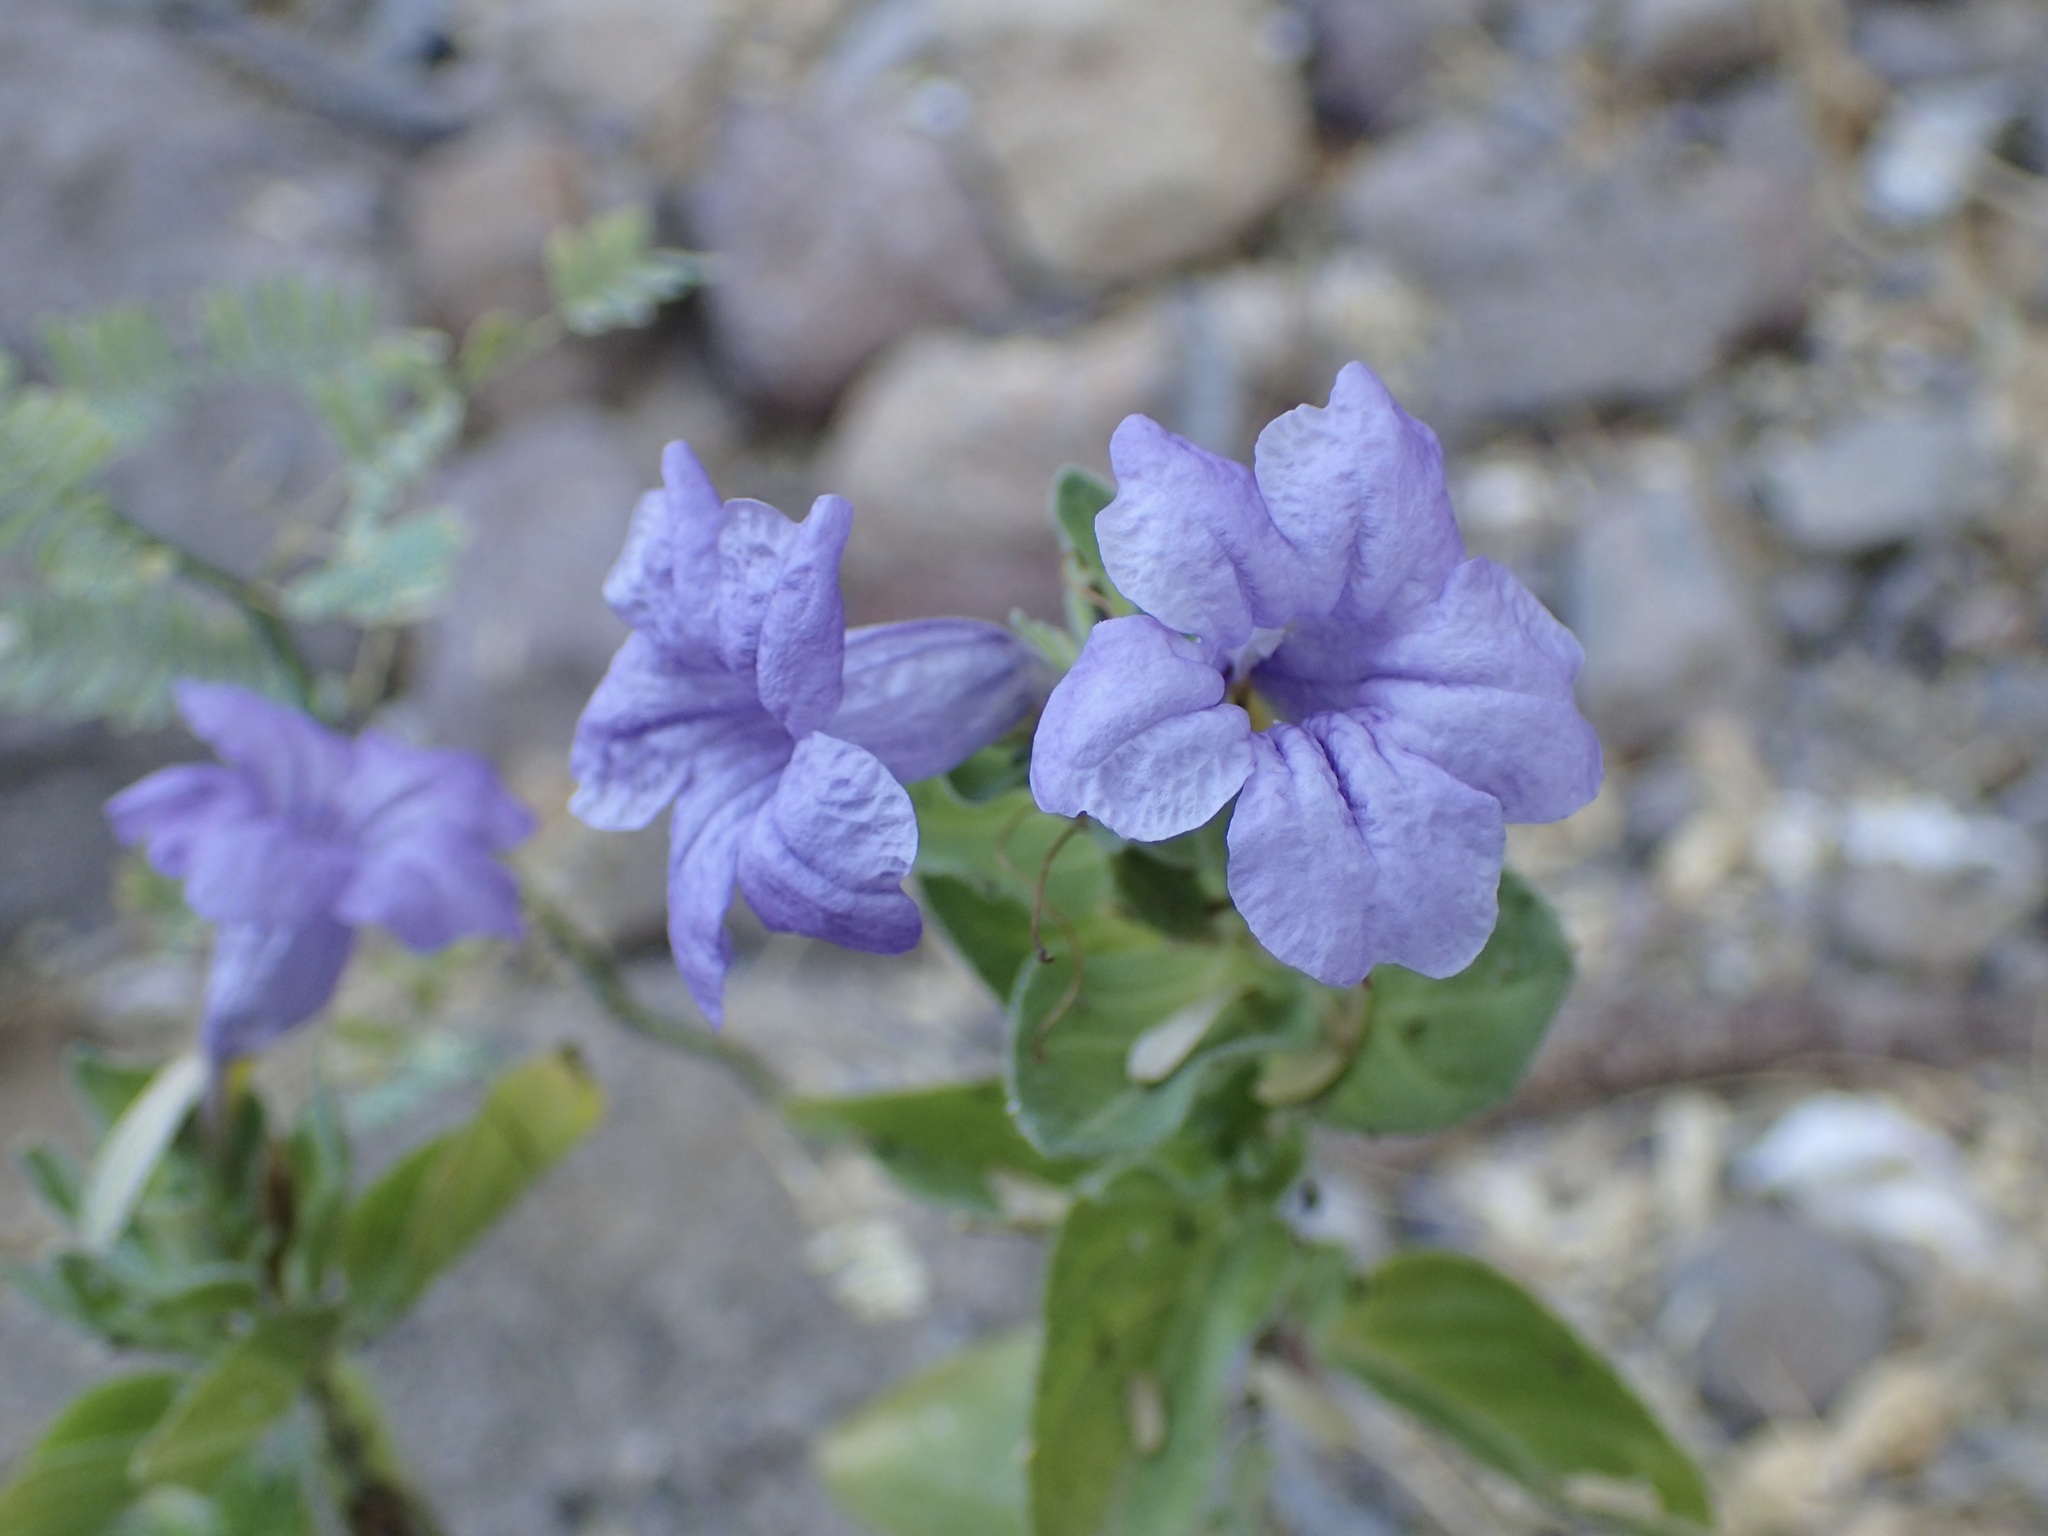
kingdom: Plantae
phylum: Tracheophyta
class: Magnoliopsida
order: Lamiales
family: Acanthaceae
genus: Ruellia
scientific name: Ruellia californica
